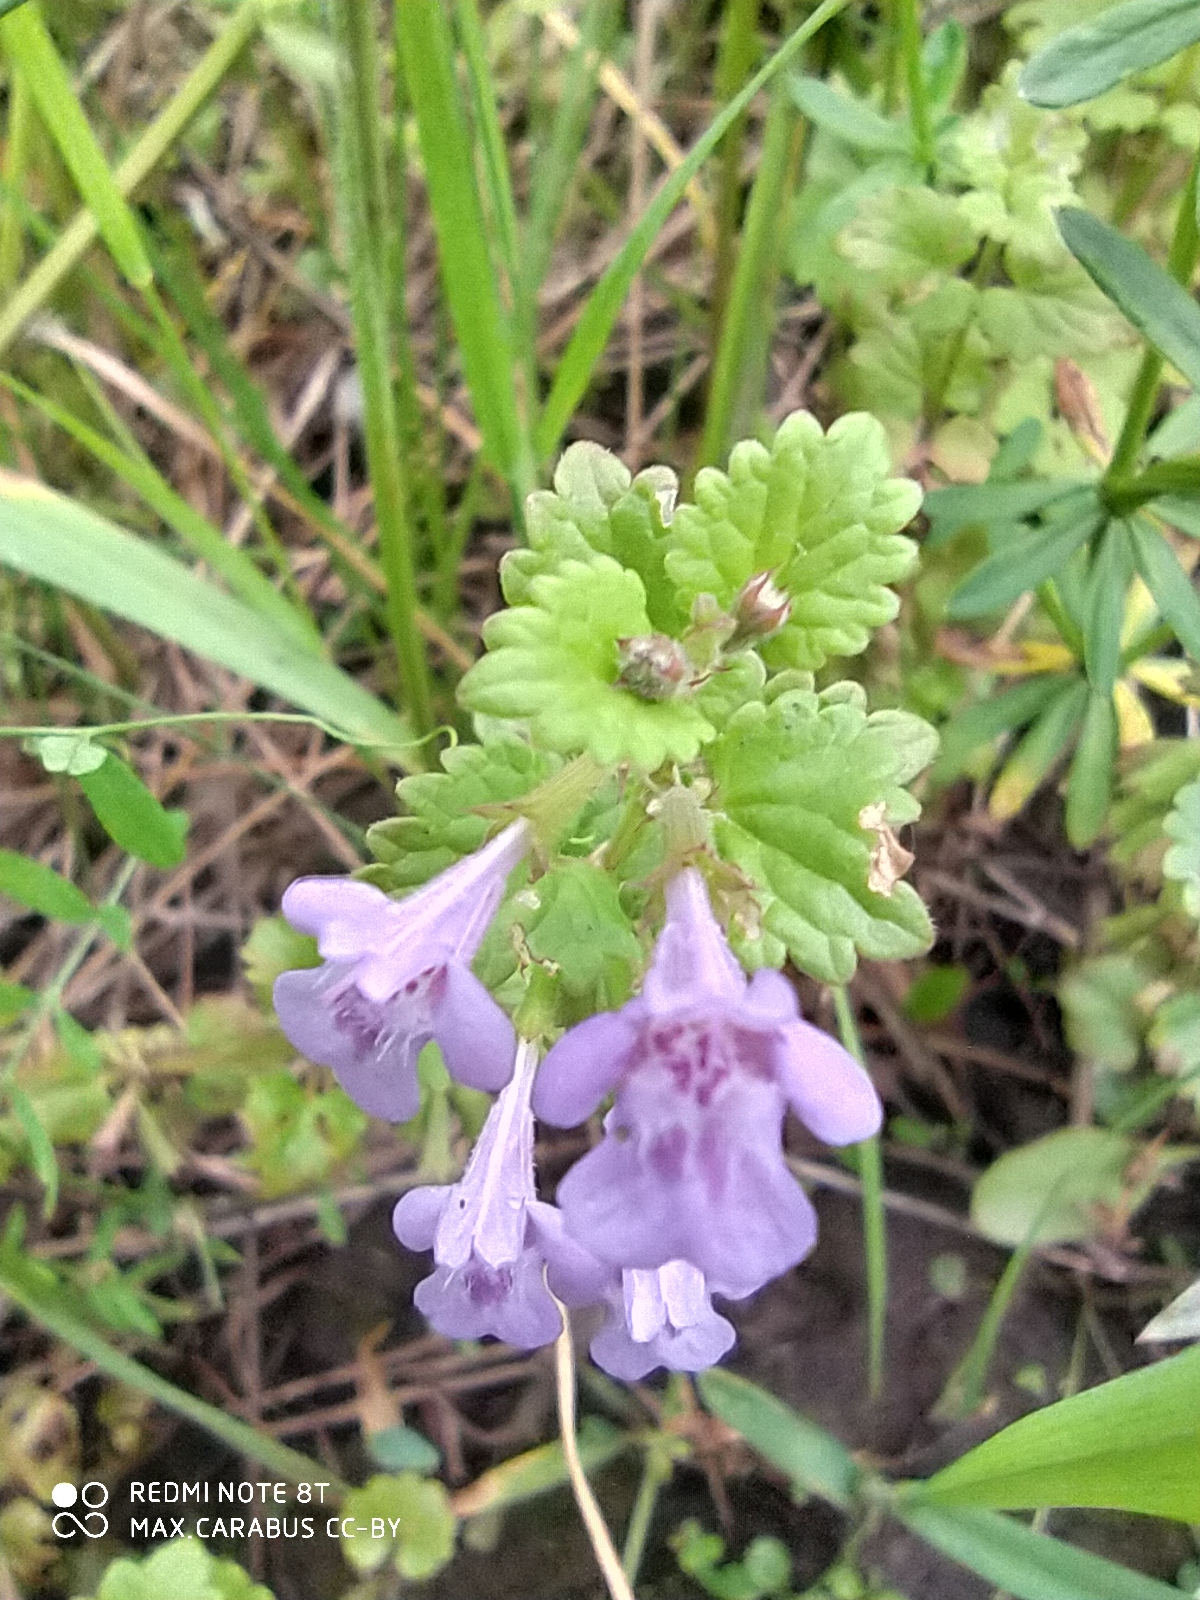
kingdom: Plantae
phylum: Tracheophyta
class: Magnoliopsida
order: Lamiales
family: Lamiaceae
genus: Glechoma
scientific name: Glechoma hederacea
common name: Ground ivy
